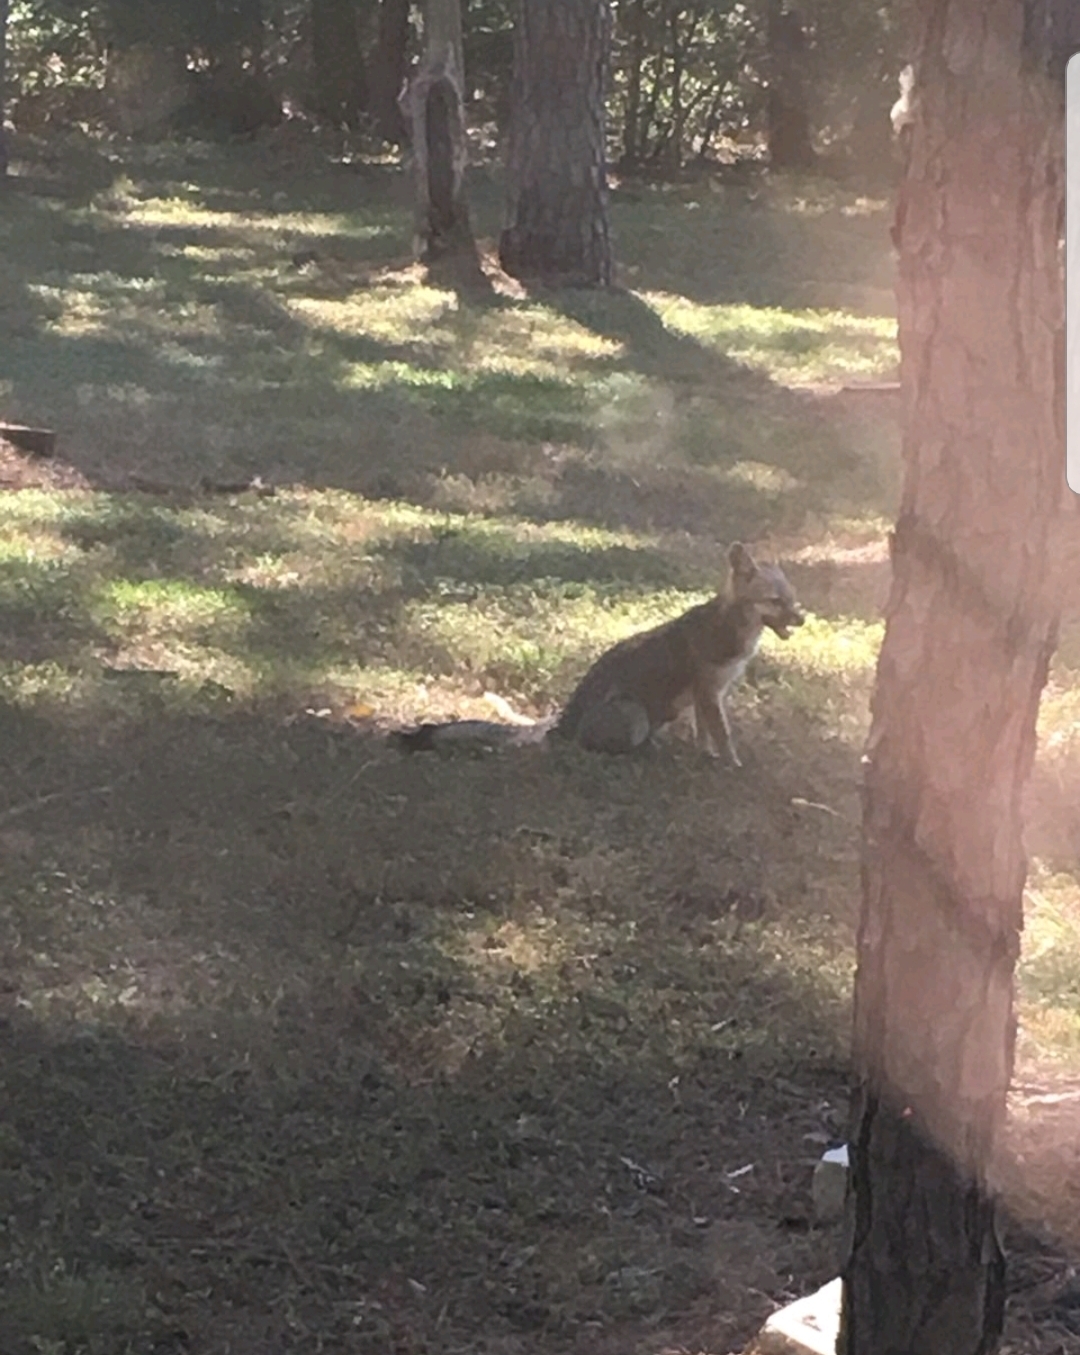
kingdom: Animalia
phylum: Chordata
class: Mammalia
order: Carnivora
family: Canidae
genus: Urocyon
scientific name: Urocyon cinereoargenteus
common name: Gray fox
